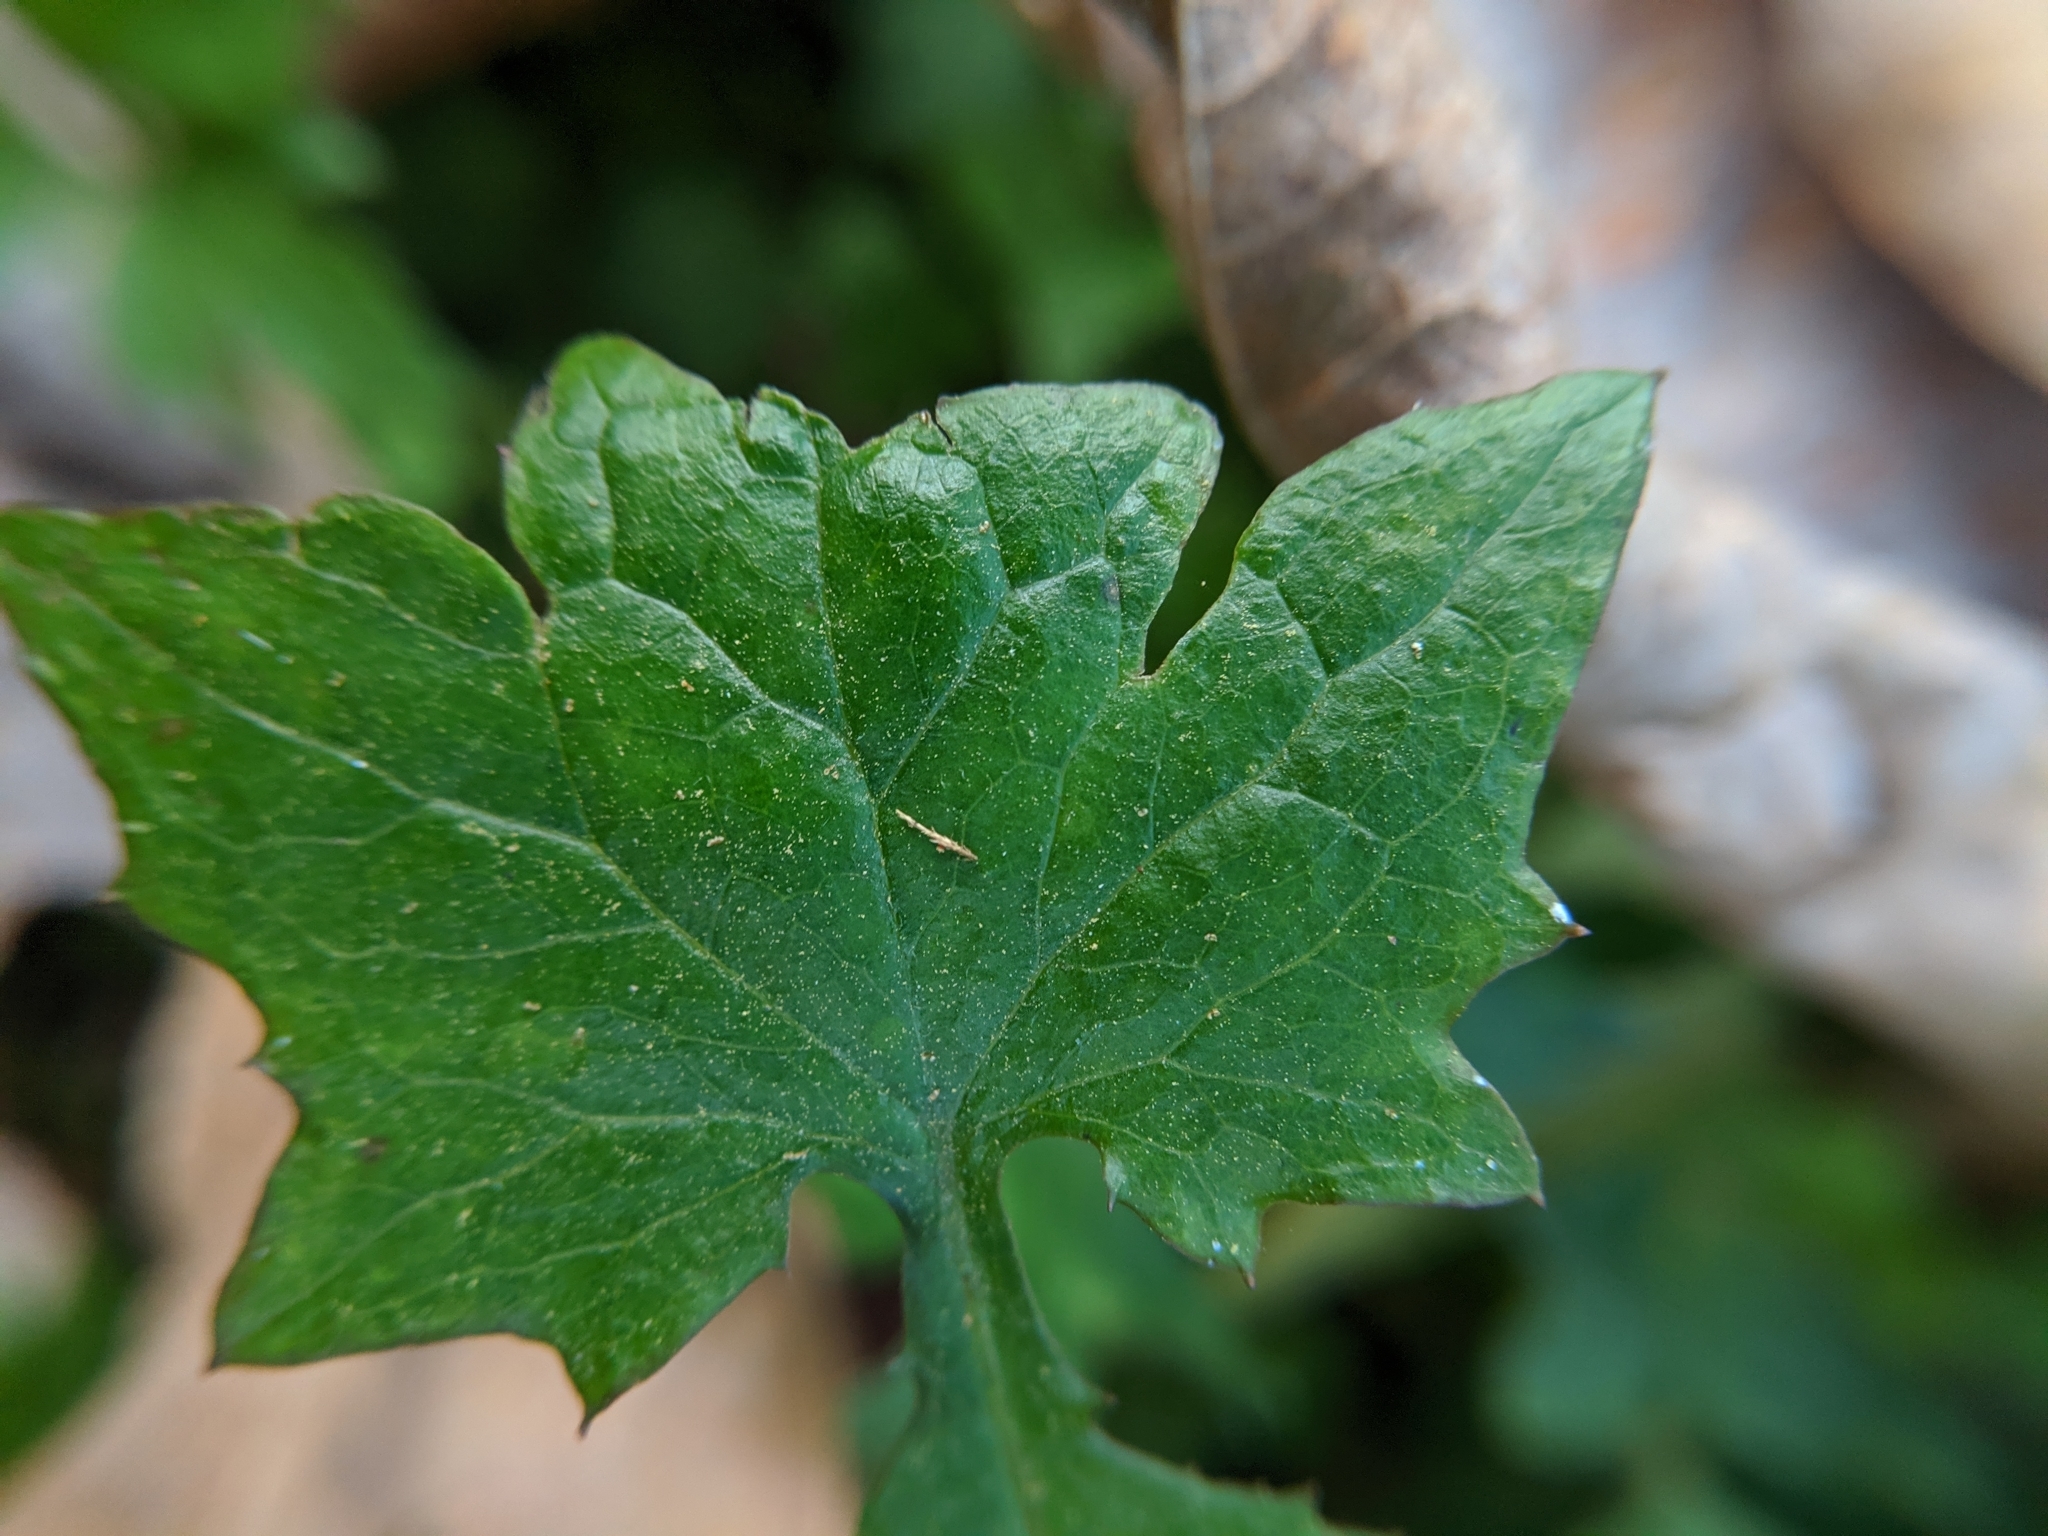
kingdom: Plantae
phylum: Tracheophyta
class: Magnoliopsida
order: Asterales
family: Asteraceae
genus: Mycelis
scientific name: Mycelis muralis
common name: Wall lettuce
